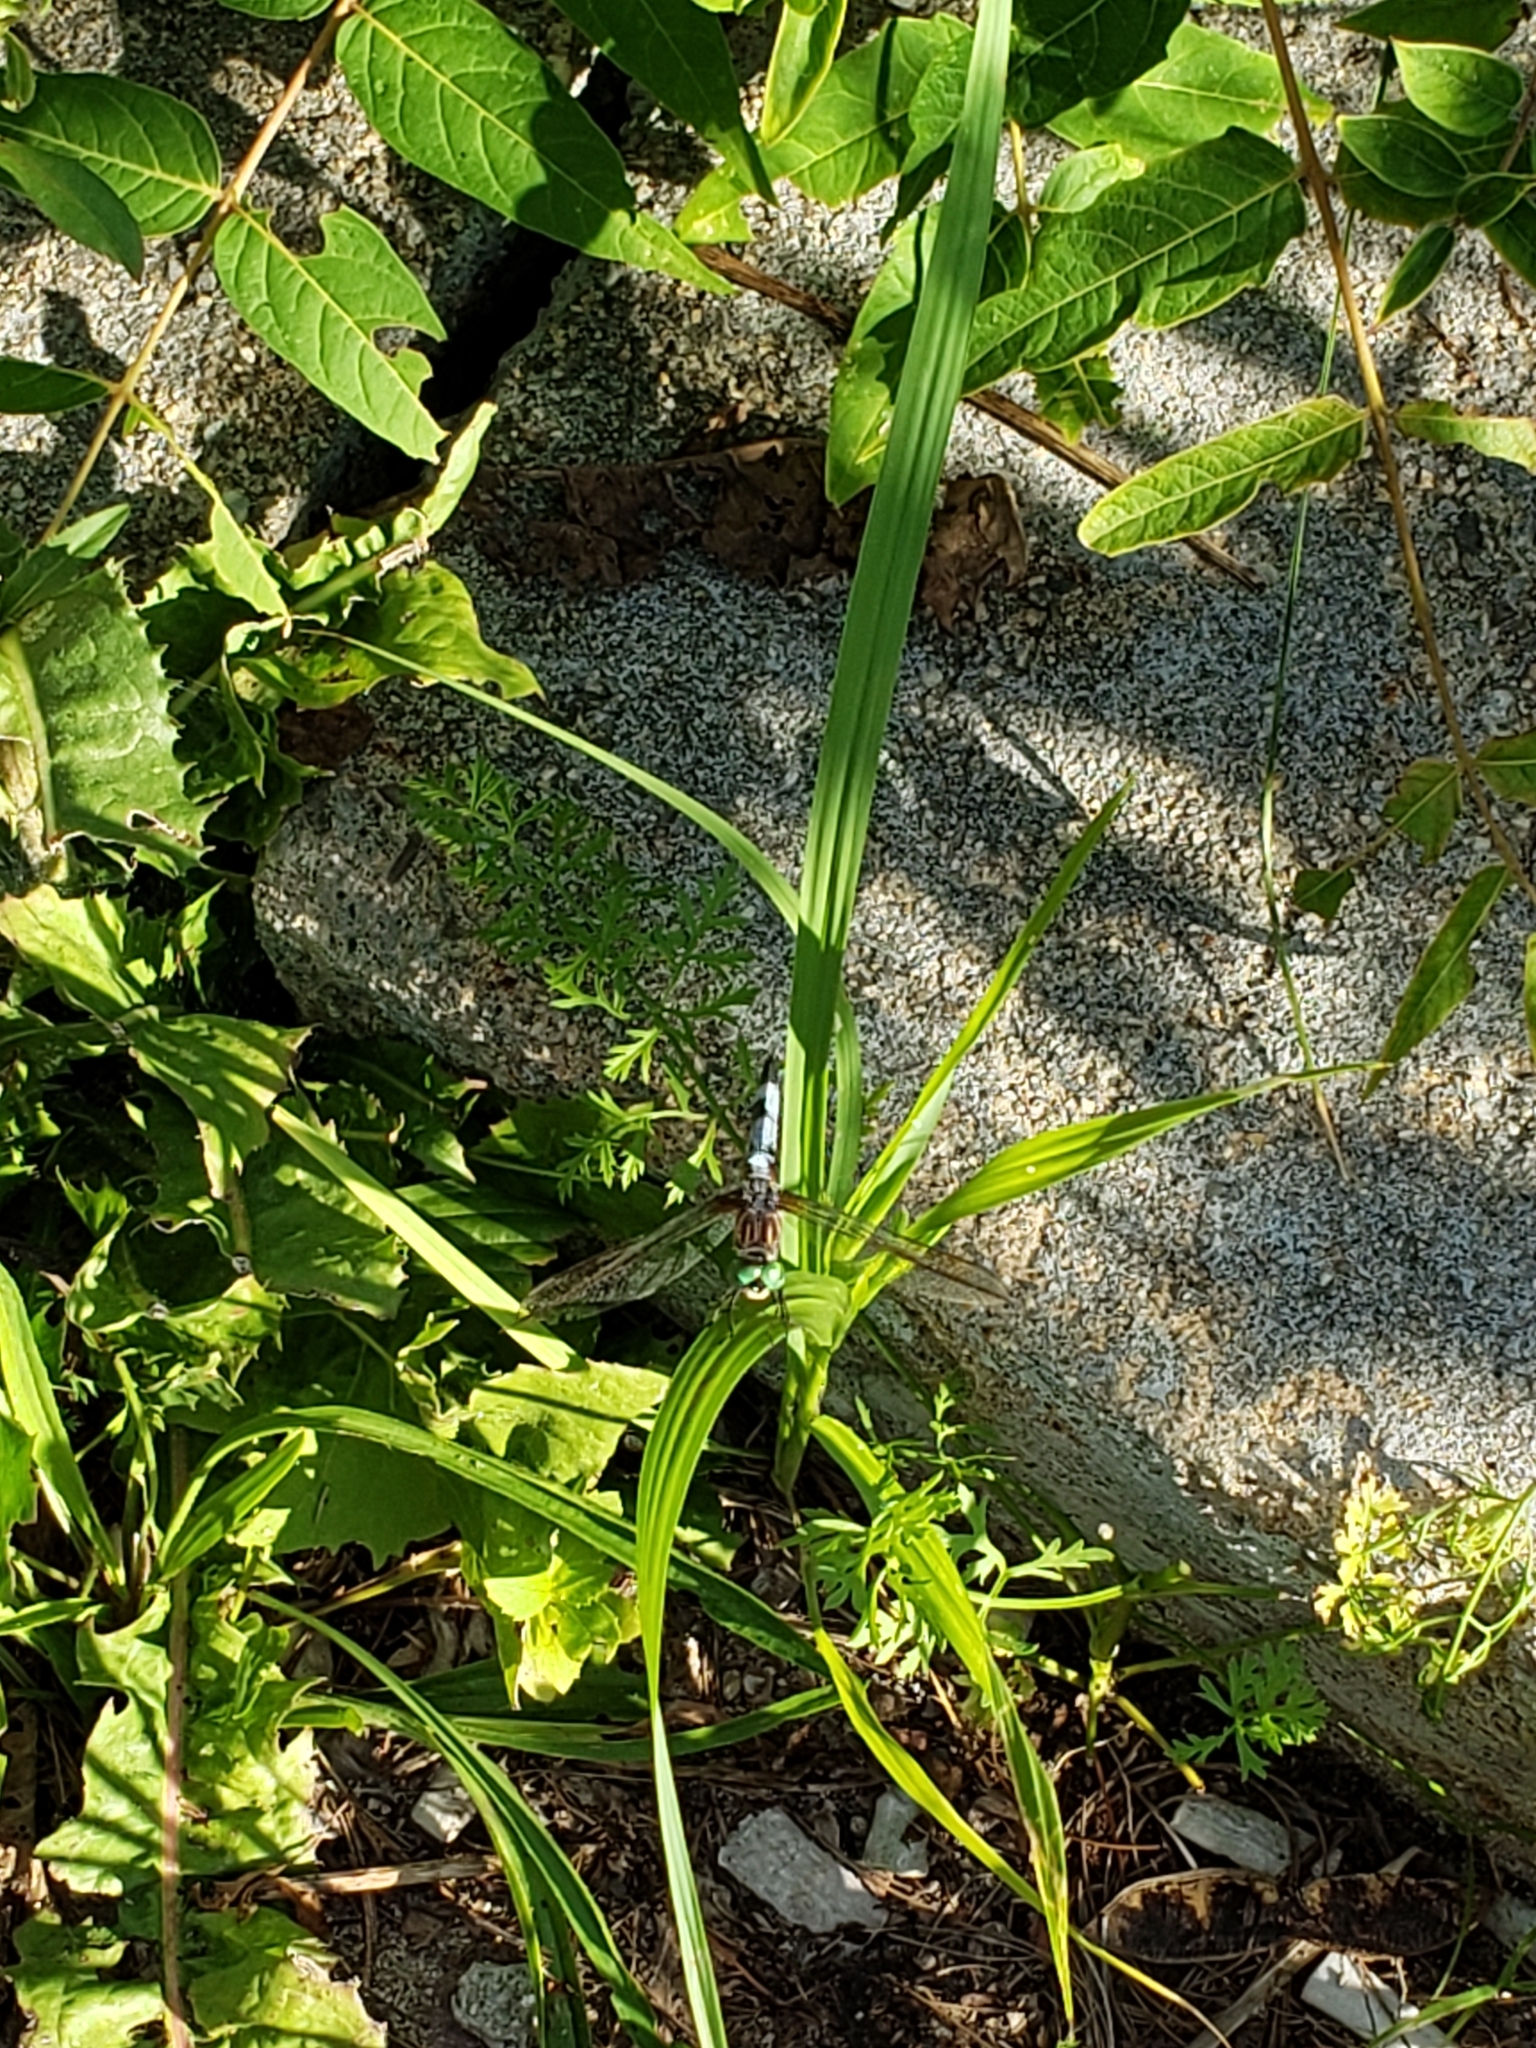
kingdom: Animalia
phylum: Arthropoda
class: Insecta
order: Odonata
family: Libellulidae
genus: Pachydiplax
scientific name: Pachydiplax longipennis
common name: Blue dasher
